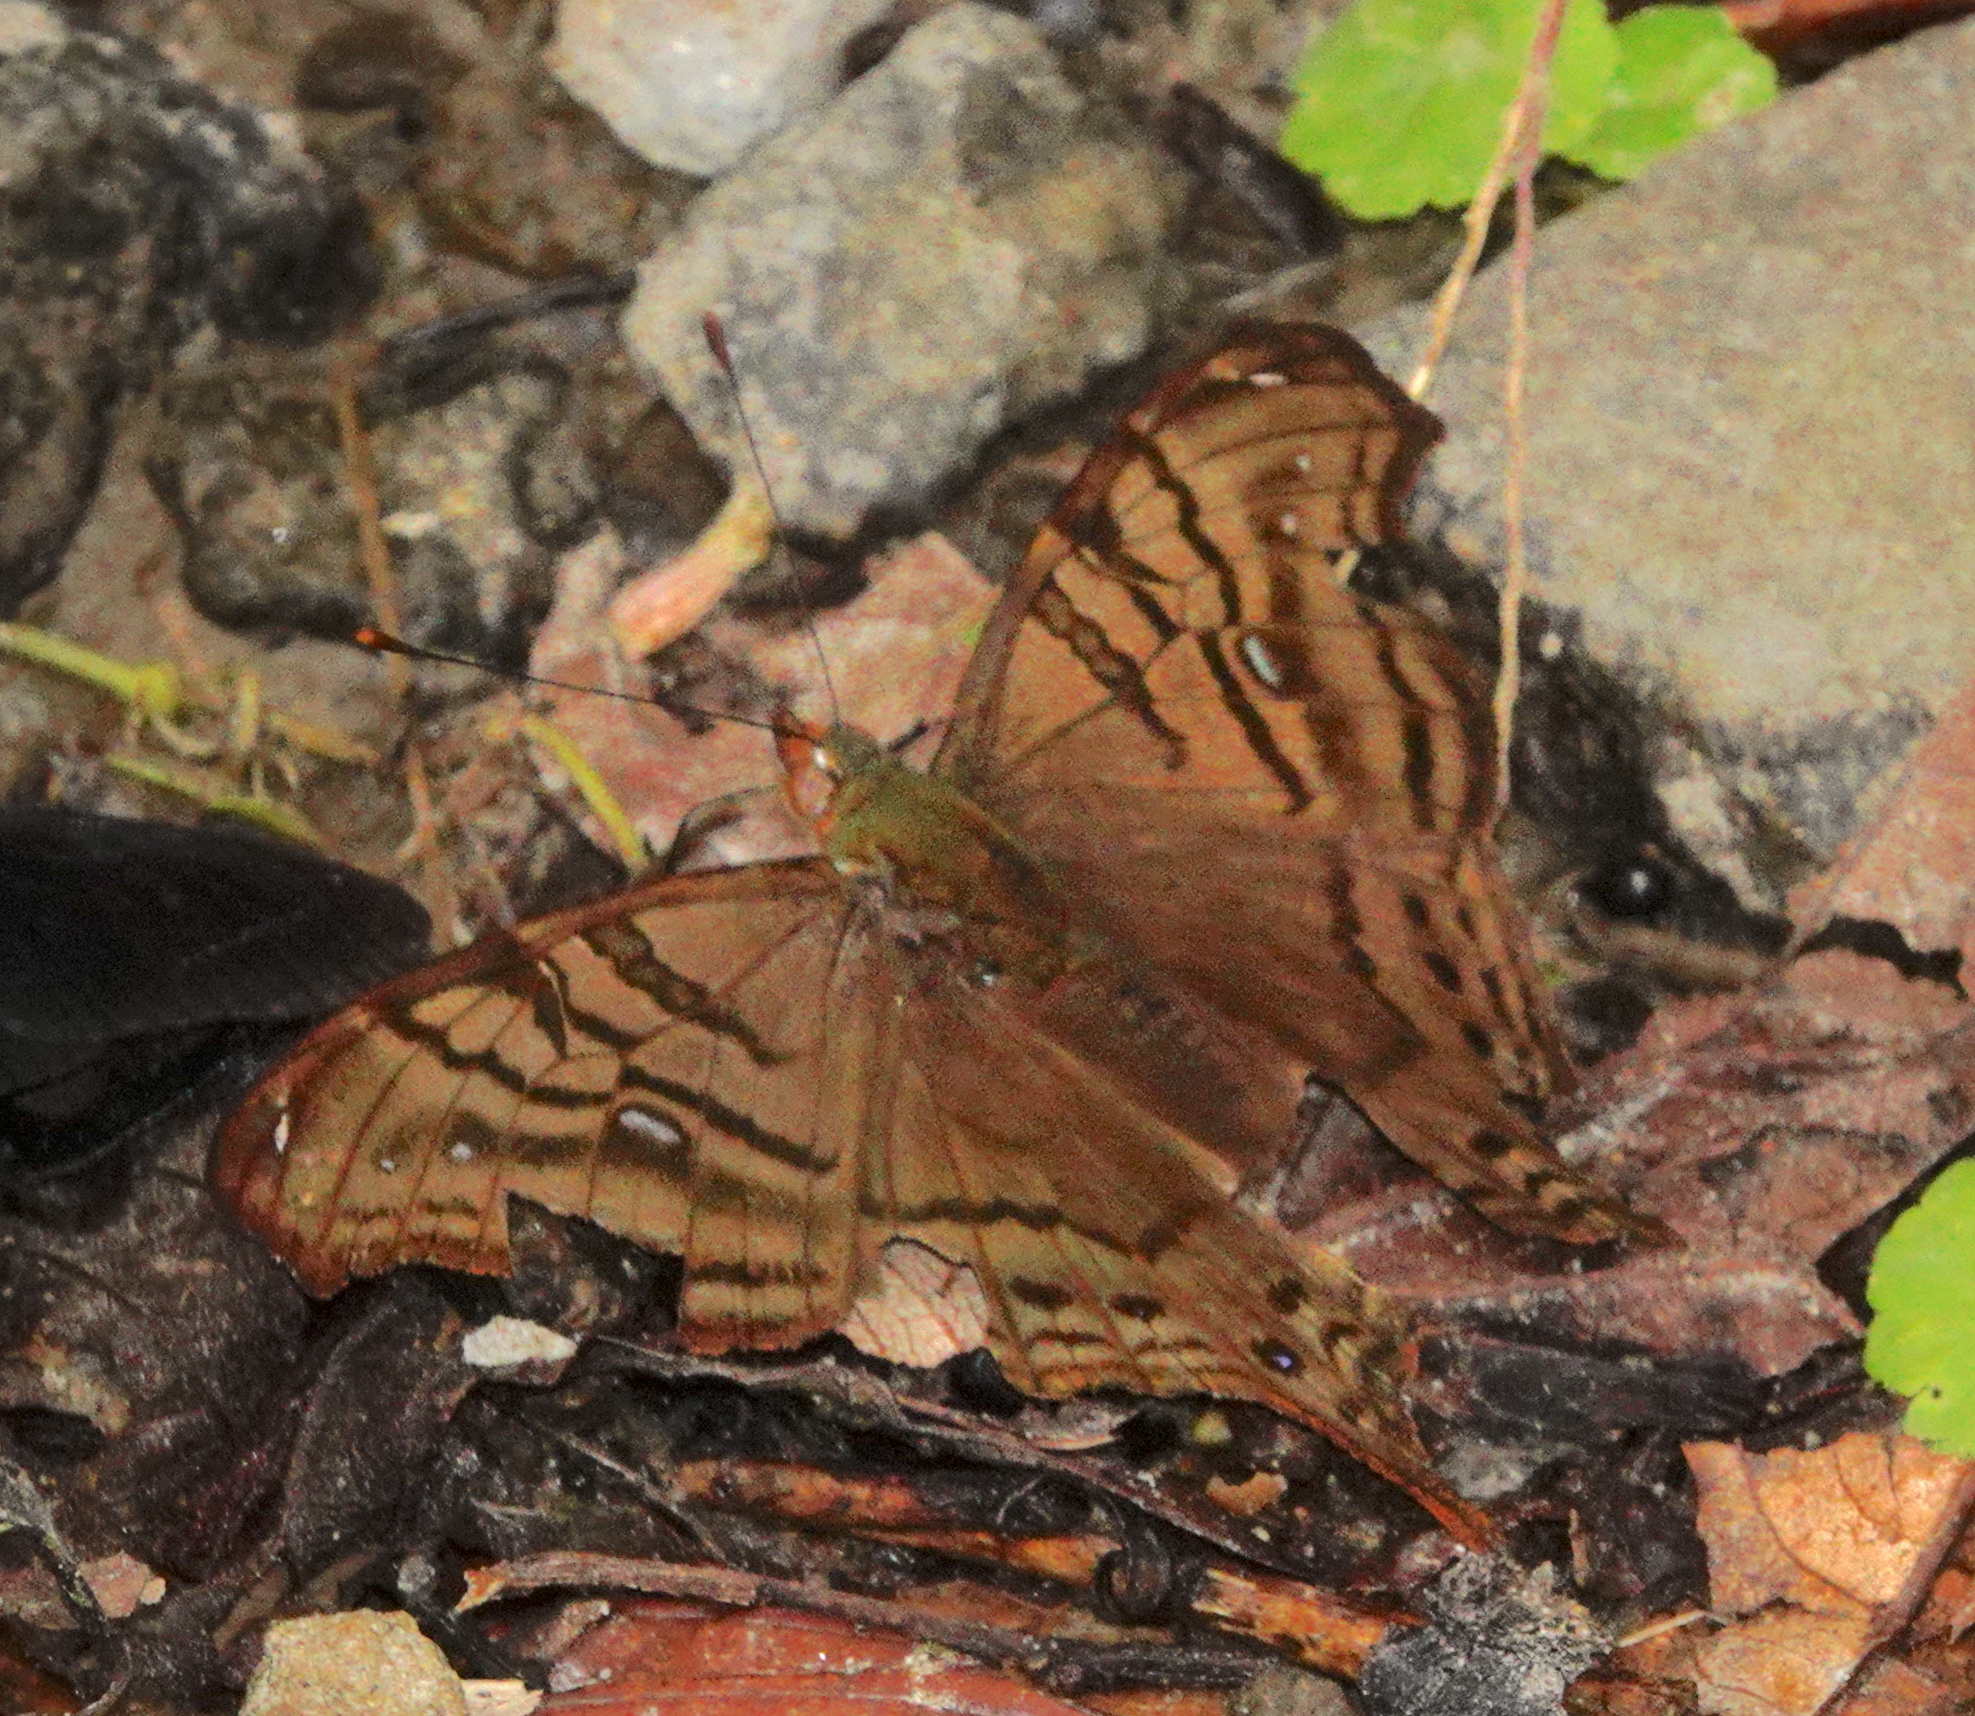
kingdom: Animalia
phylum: Arthropoda
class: Insecta
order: Lepidoptera
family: Nymphalidae
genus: Hypanartia
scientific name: Hypanartia dione
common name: Banded mapwing
